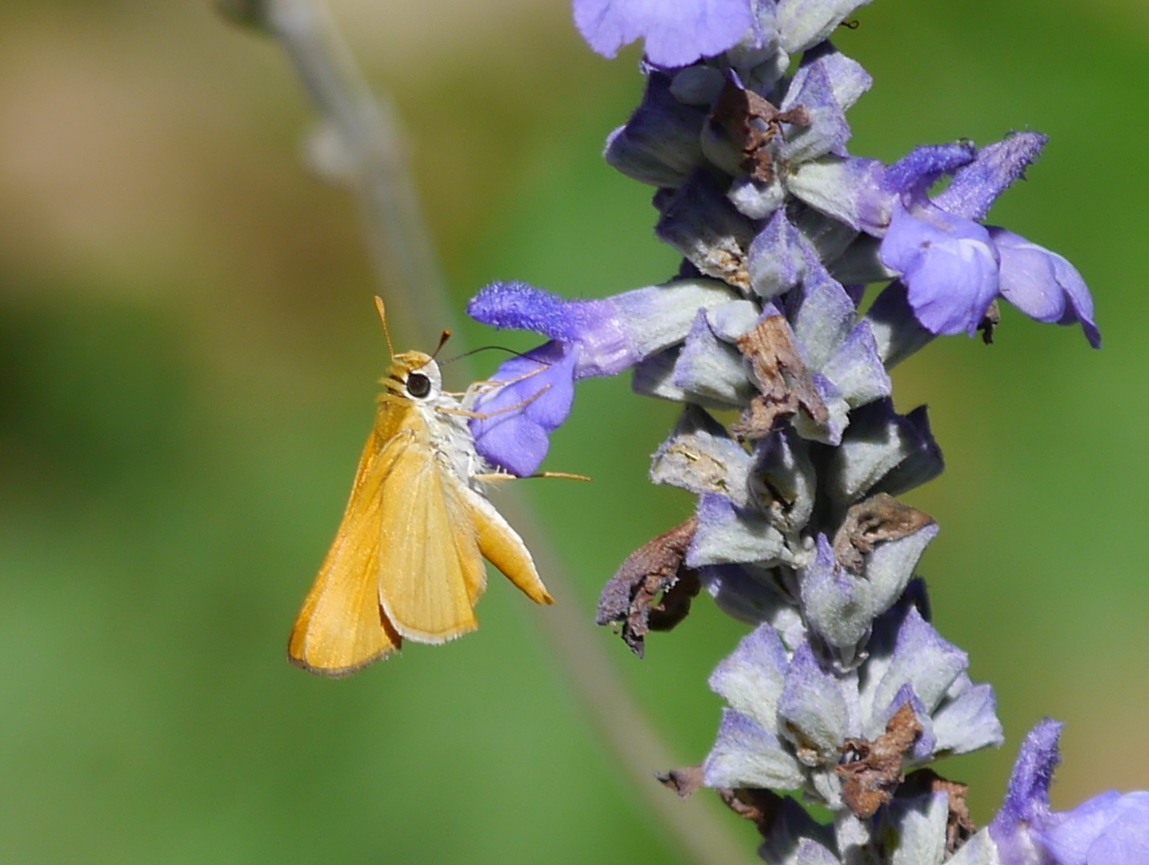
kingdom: Animalia
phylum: Arthropoda
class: Insecta
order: Lepidoptera
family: Hesperiidae
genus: Copaeodes
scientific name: Copaeodes aurantiaca
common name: Orange skipperling
